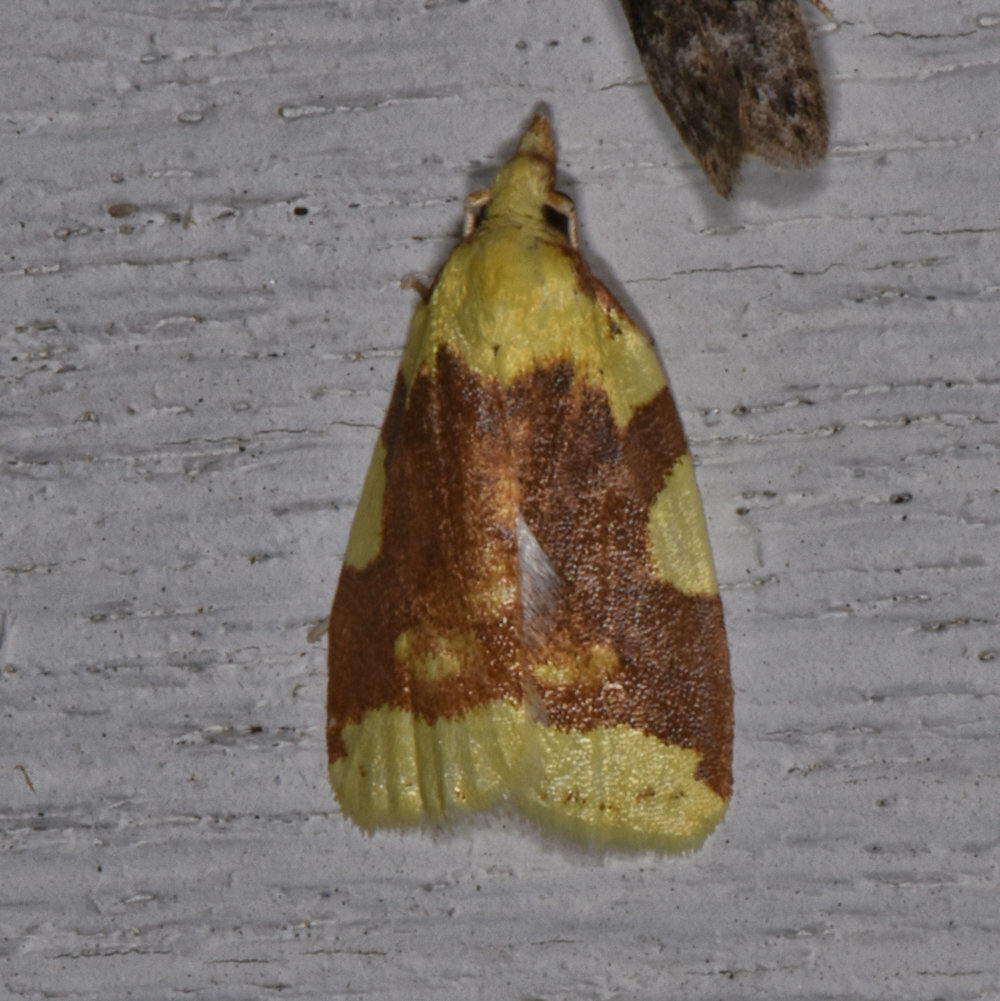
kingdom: Animalia
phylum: Arthropoda
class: Insecta
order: Lepidoptera
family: Tortricidae
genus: Cenopis
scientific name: Cenopis niveana
